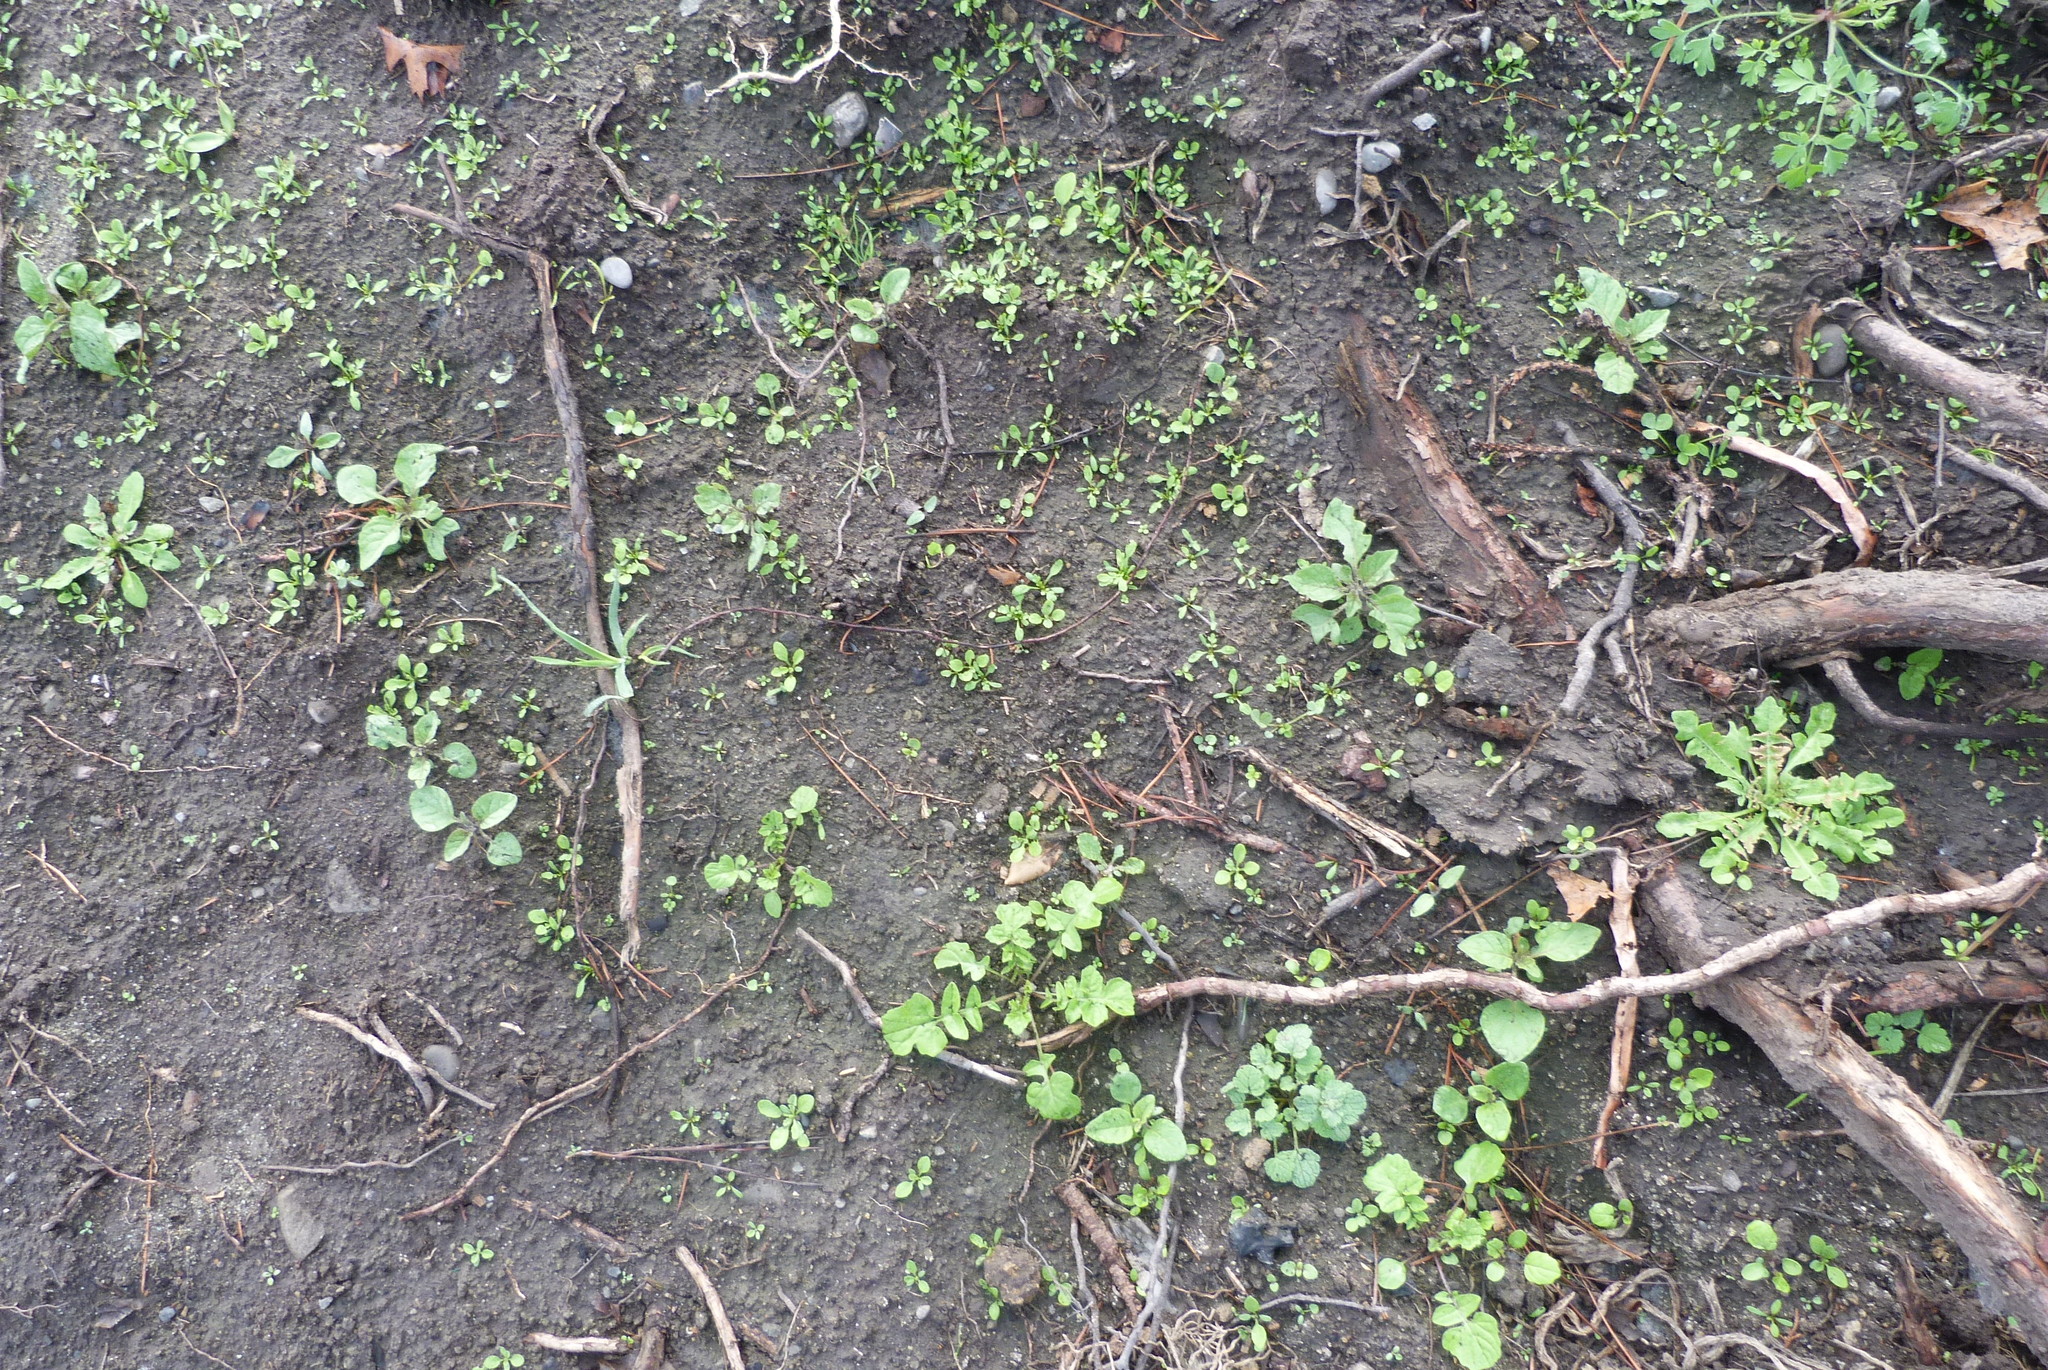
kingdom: Plantae
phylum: Tracheophyta
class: Magnoliopsida
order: Solanales
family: Solanaceae
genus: Solanum
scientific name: Solanum nigrum
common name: Black nightshade
